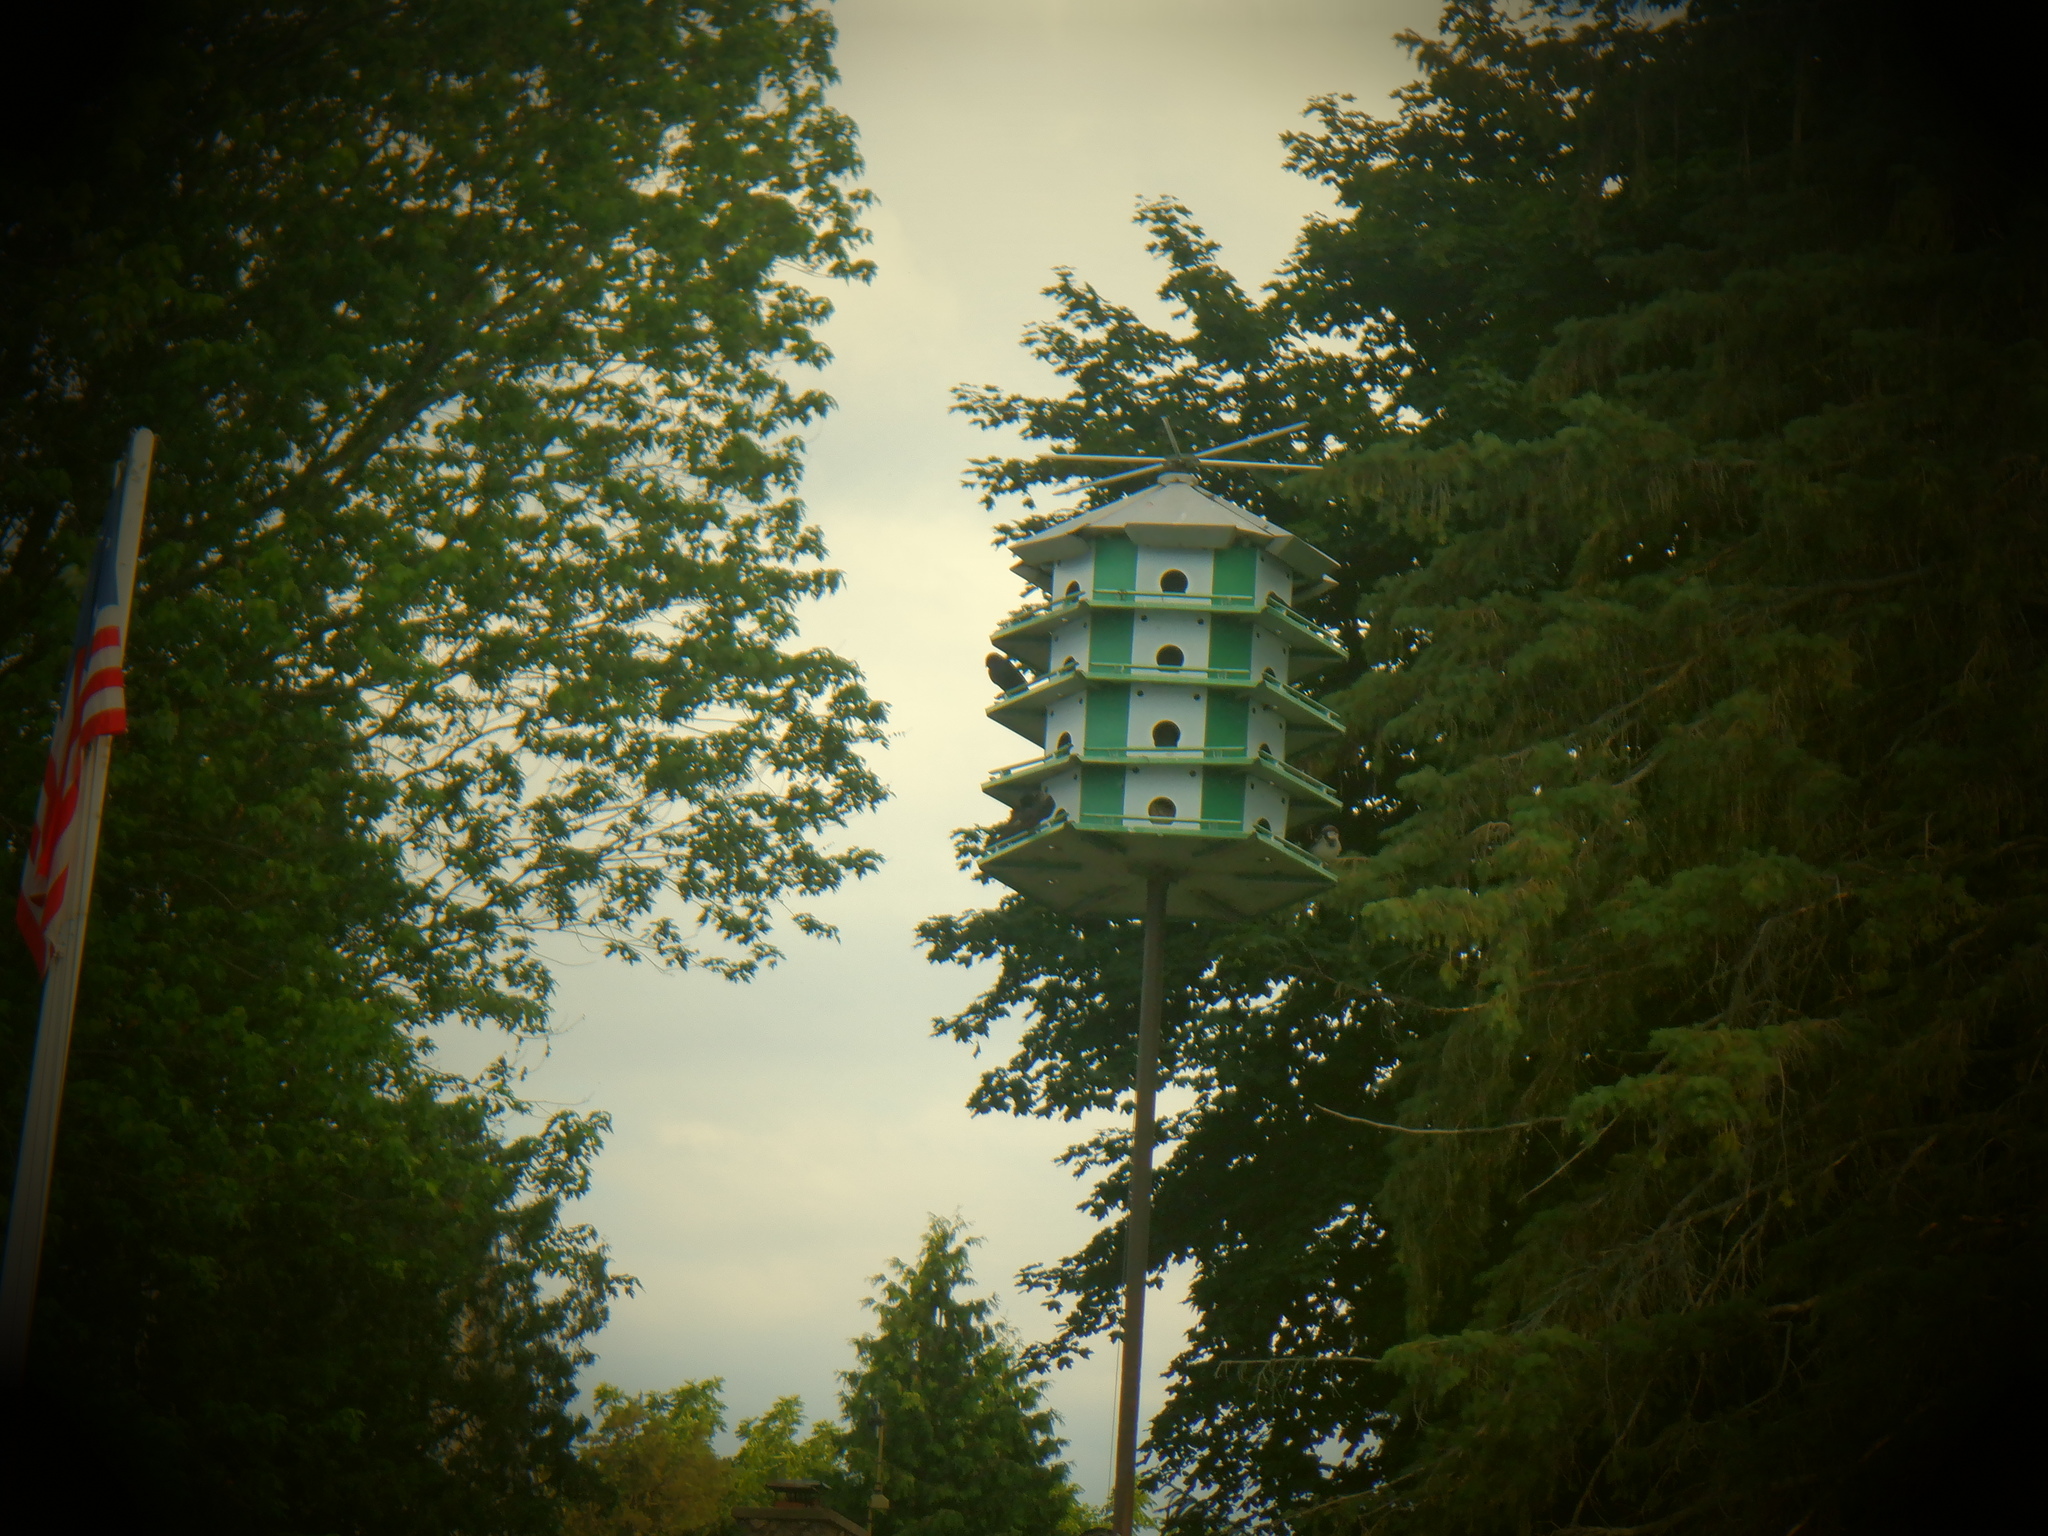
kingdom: Animalia
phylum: Chordata
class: Aves
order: Passeriformes
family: Hirundinidae
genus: Progne
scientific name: Progne subis
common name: Purple martin
